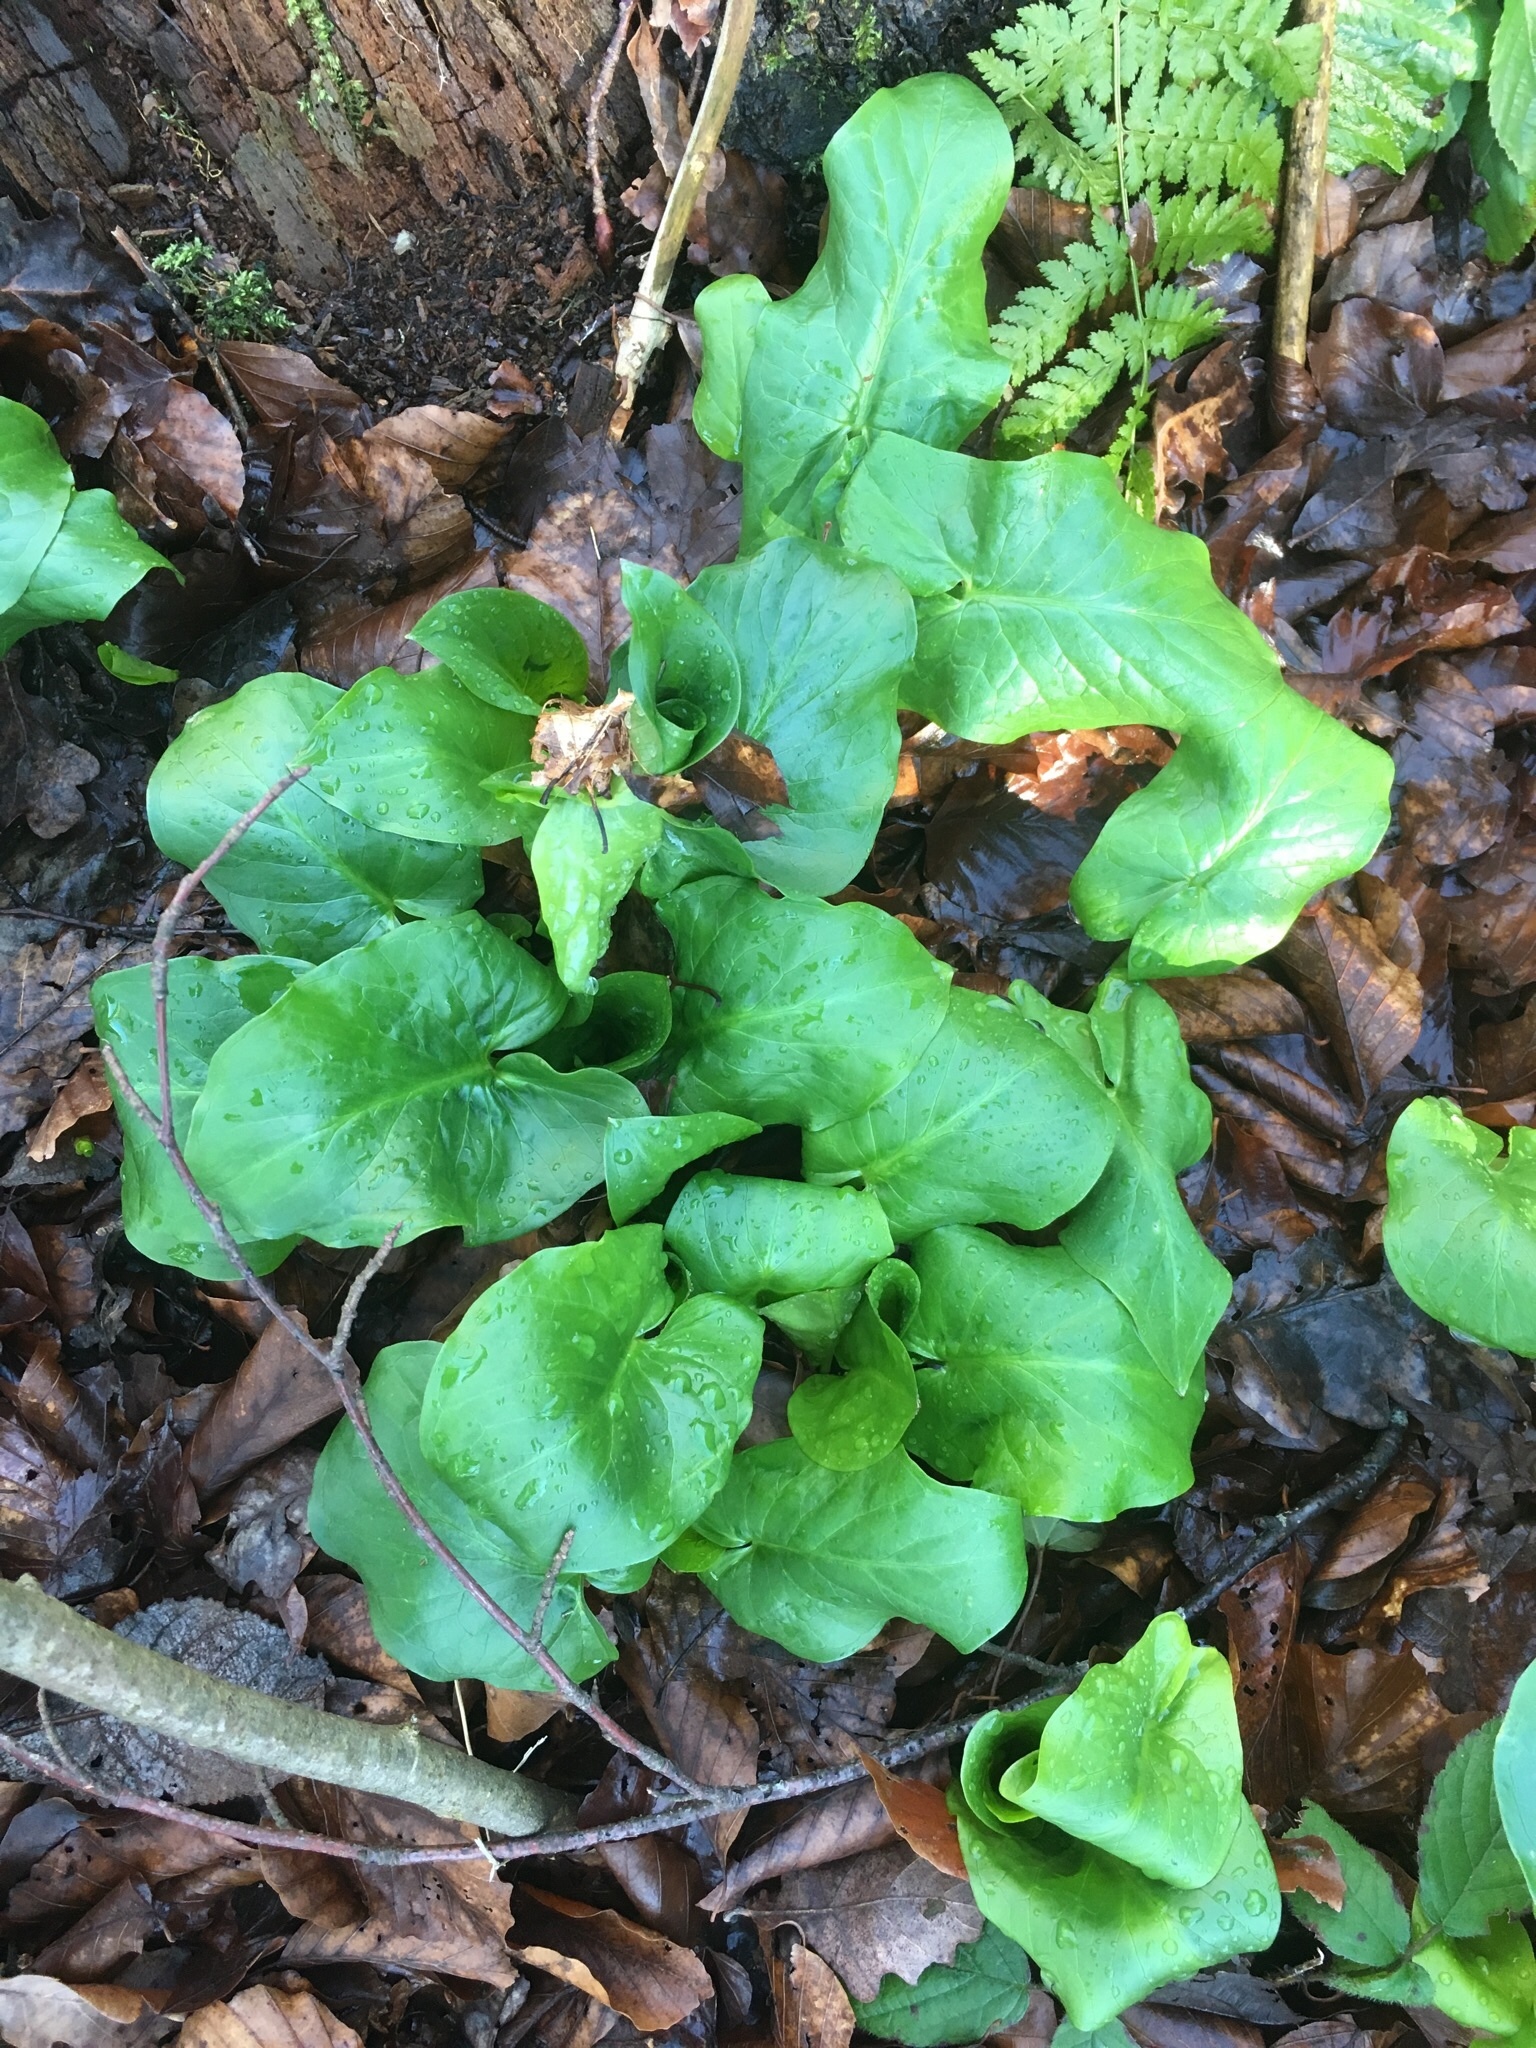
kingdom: Plantae
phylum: Tracheophyta
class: Liliopsida
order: Alismatales
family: Araceae
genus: Arum
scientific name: Arum maculatum
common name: Lords-and-ladies
